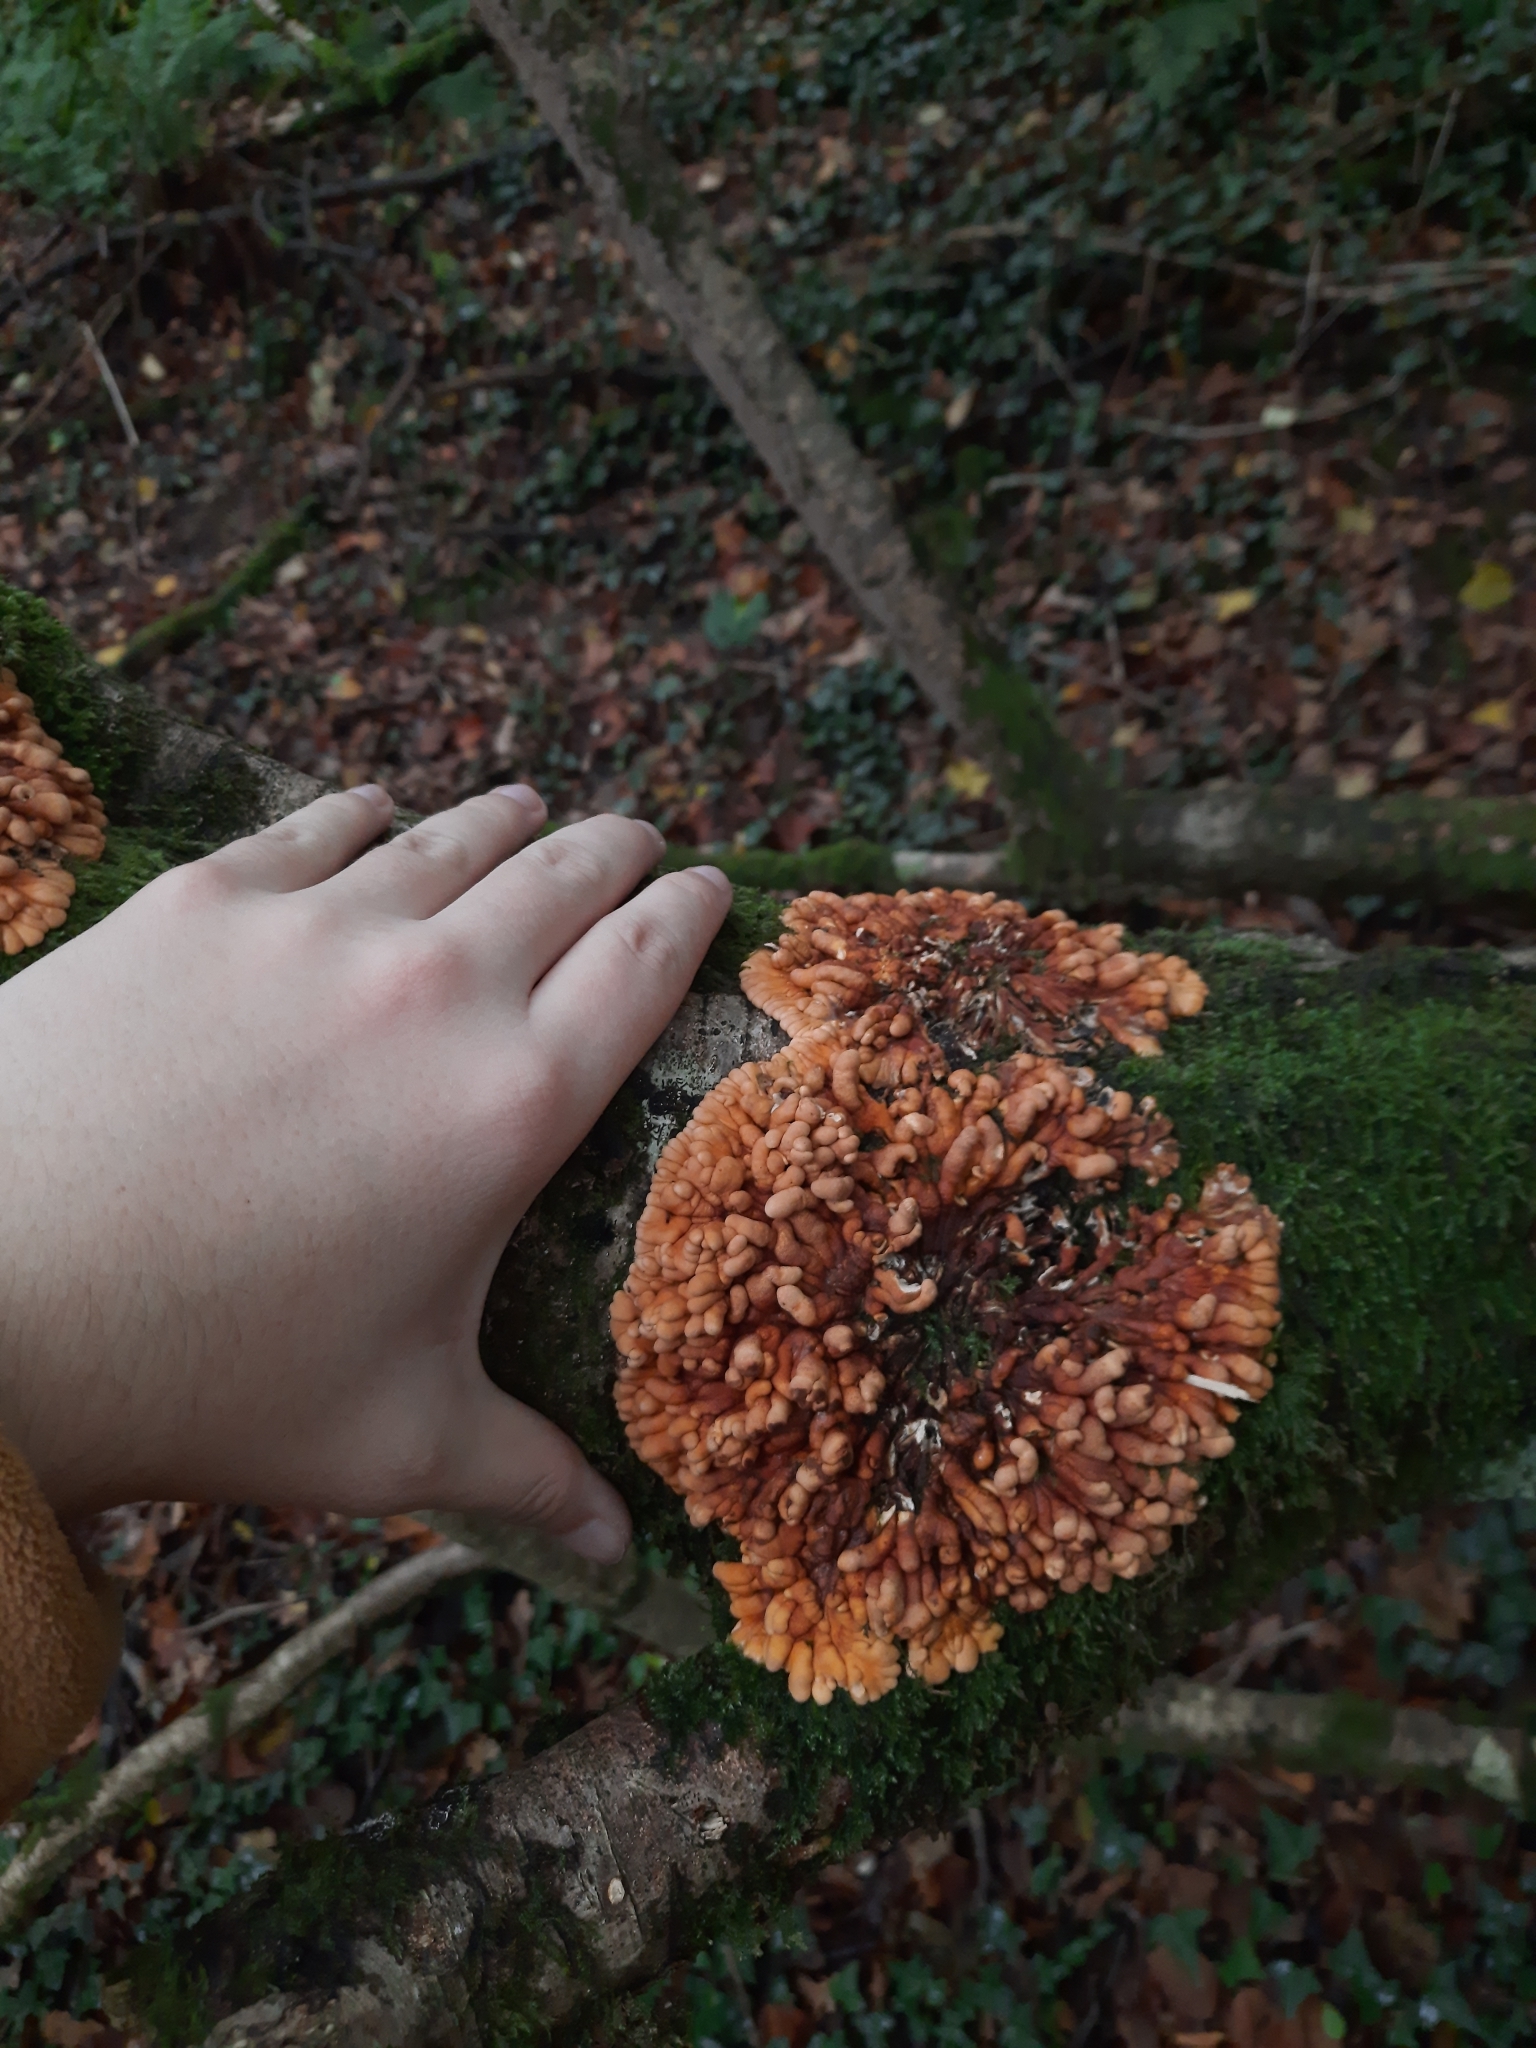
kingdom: Fungi
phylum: Ascomycota
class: Sordariomycetes
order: Hypocreales
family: Hypocreaceae
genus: Hypocreopsis
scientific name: Hypocreopsis rhododendri
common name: Hazel gloves
